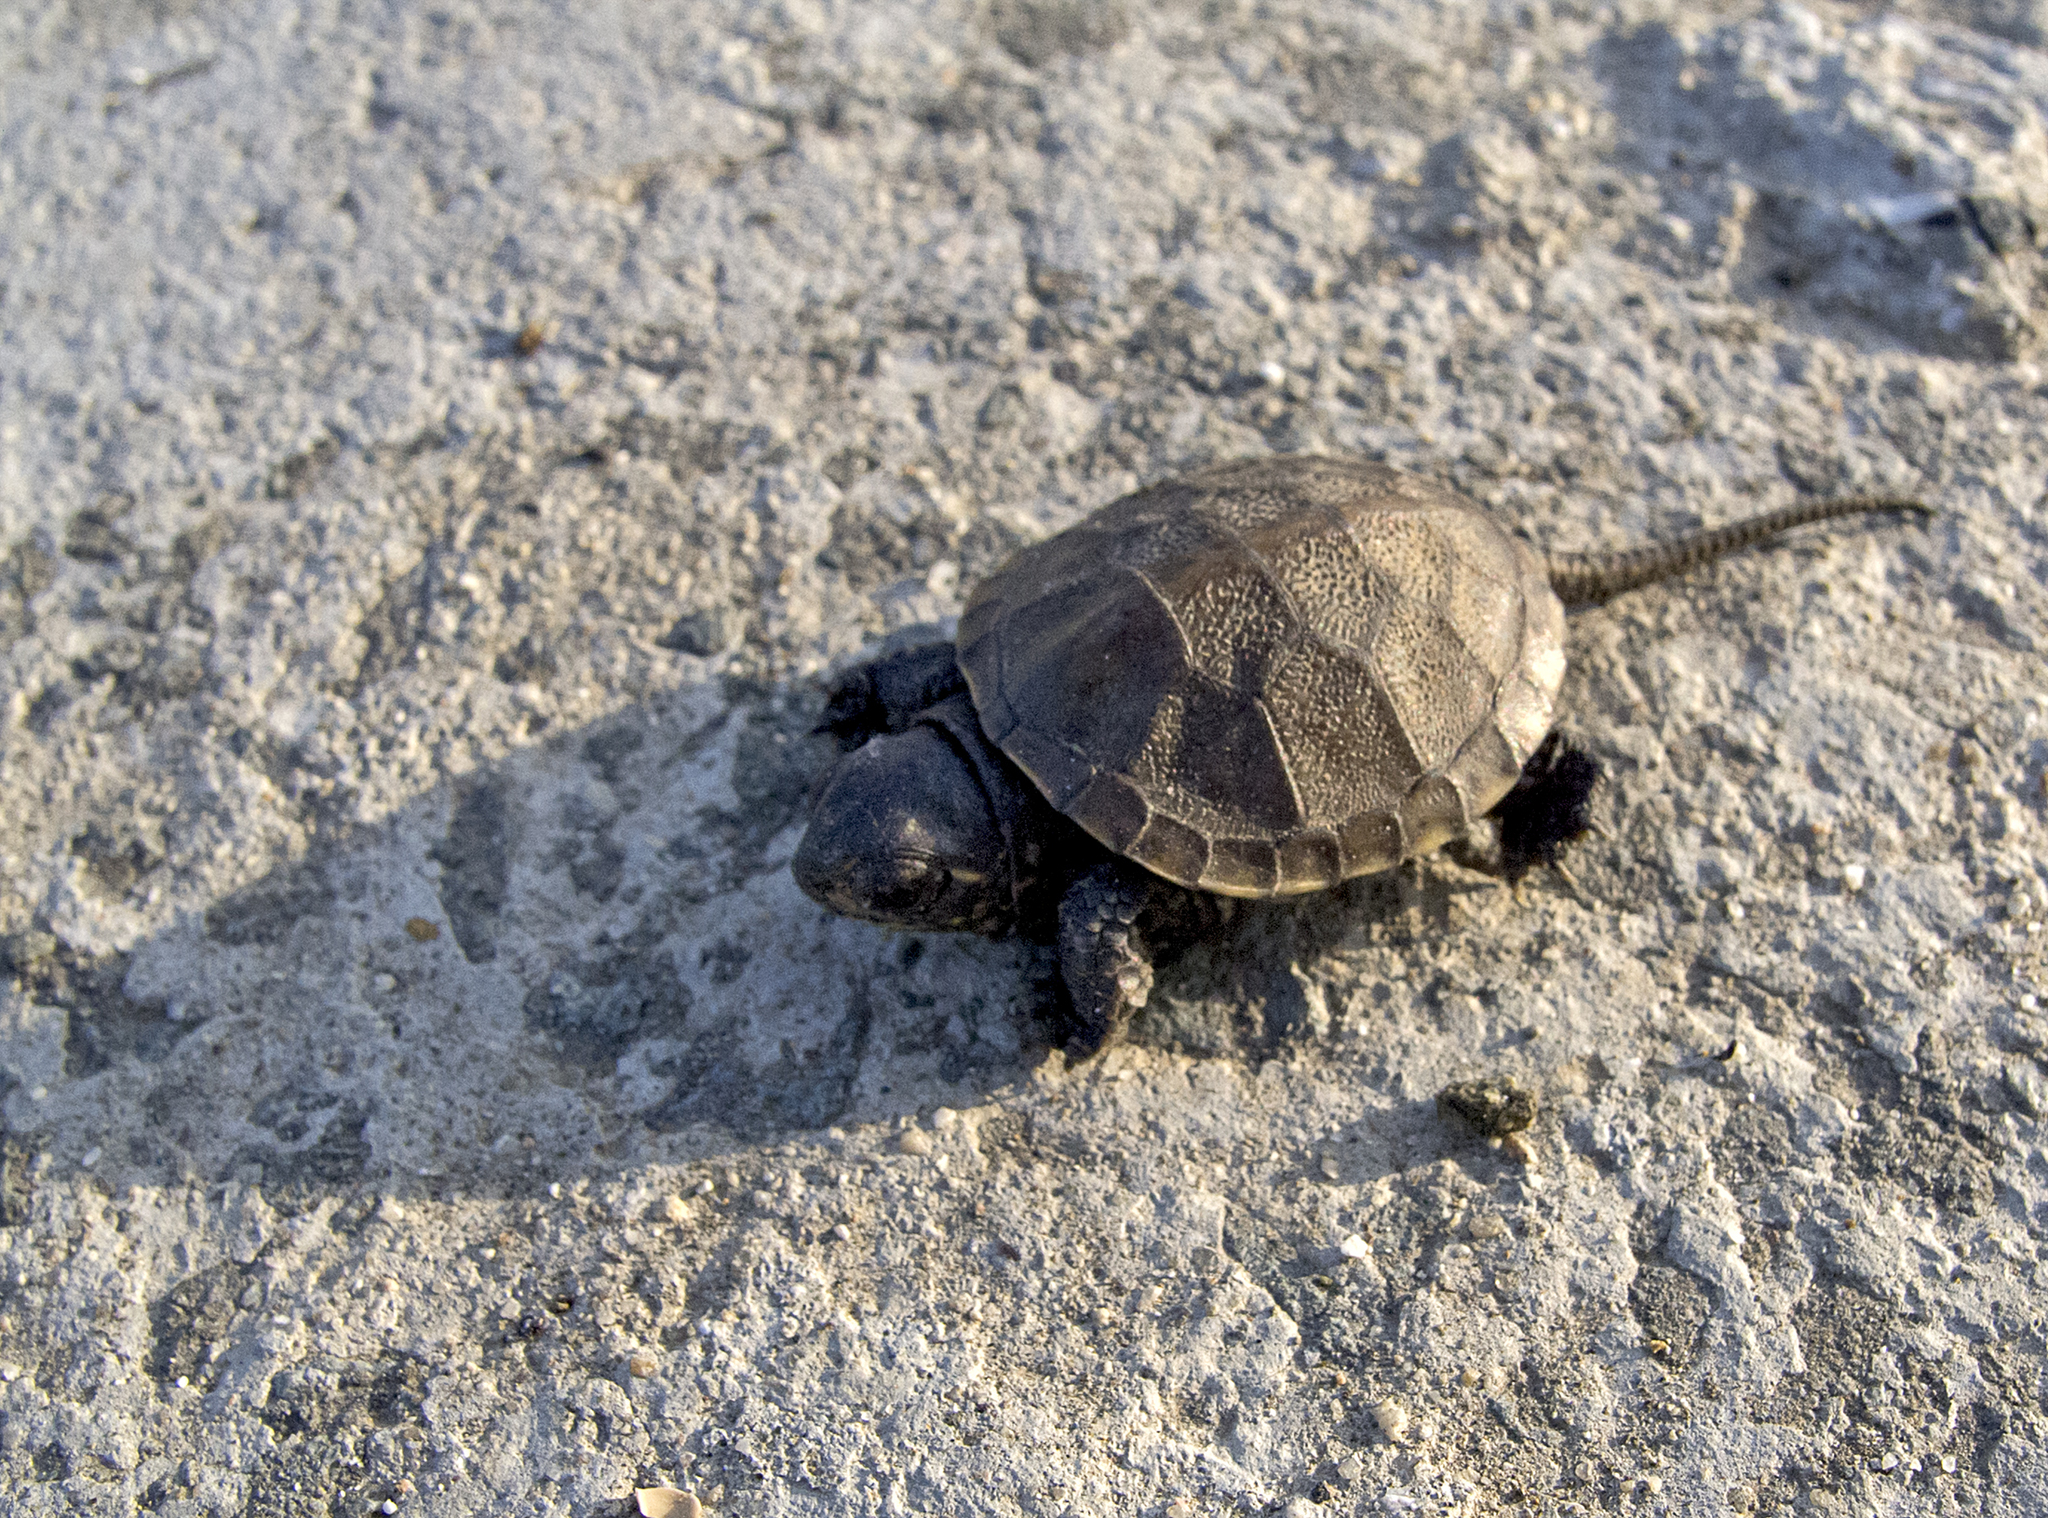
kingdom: Animalia
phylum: Chordata
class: Testudines
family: Emydidae
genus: Emys
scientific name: Emys orbicularis
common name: European pond turtle
